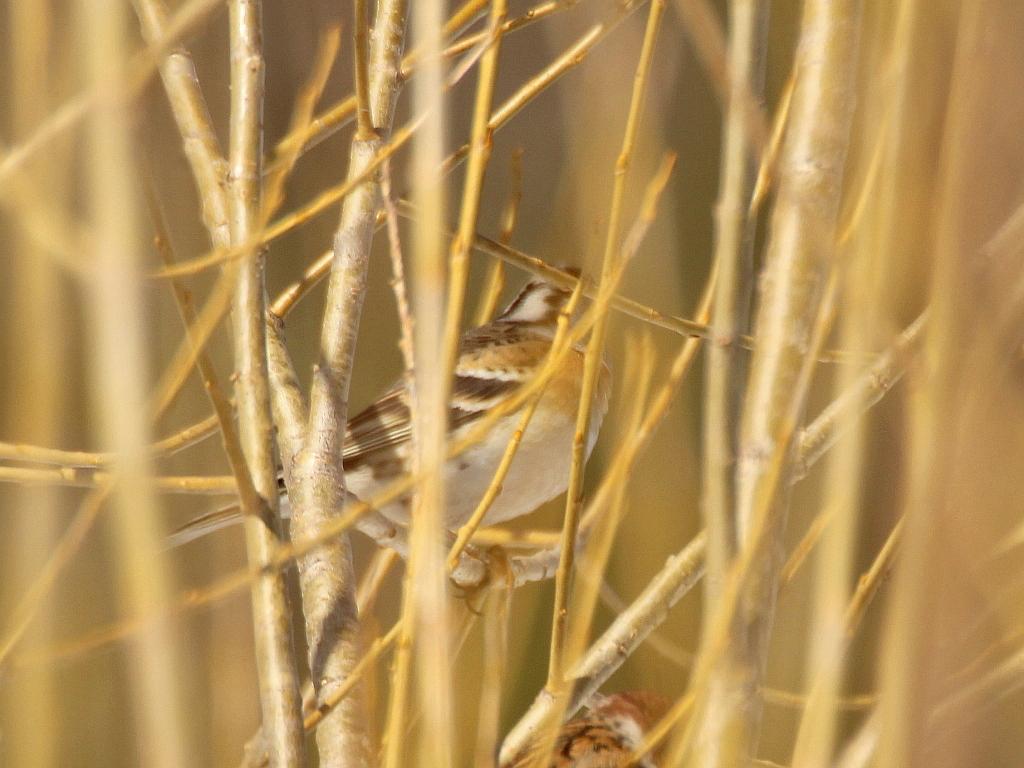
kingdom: Animalia
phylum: Chordata
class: Aves
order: Passeriformes
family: Fringillidae
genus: Fringilla
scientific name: Fringilla montifringilla
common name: Brambling
